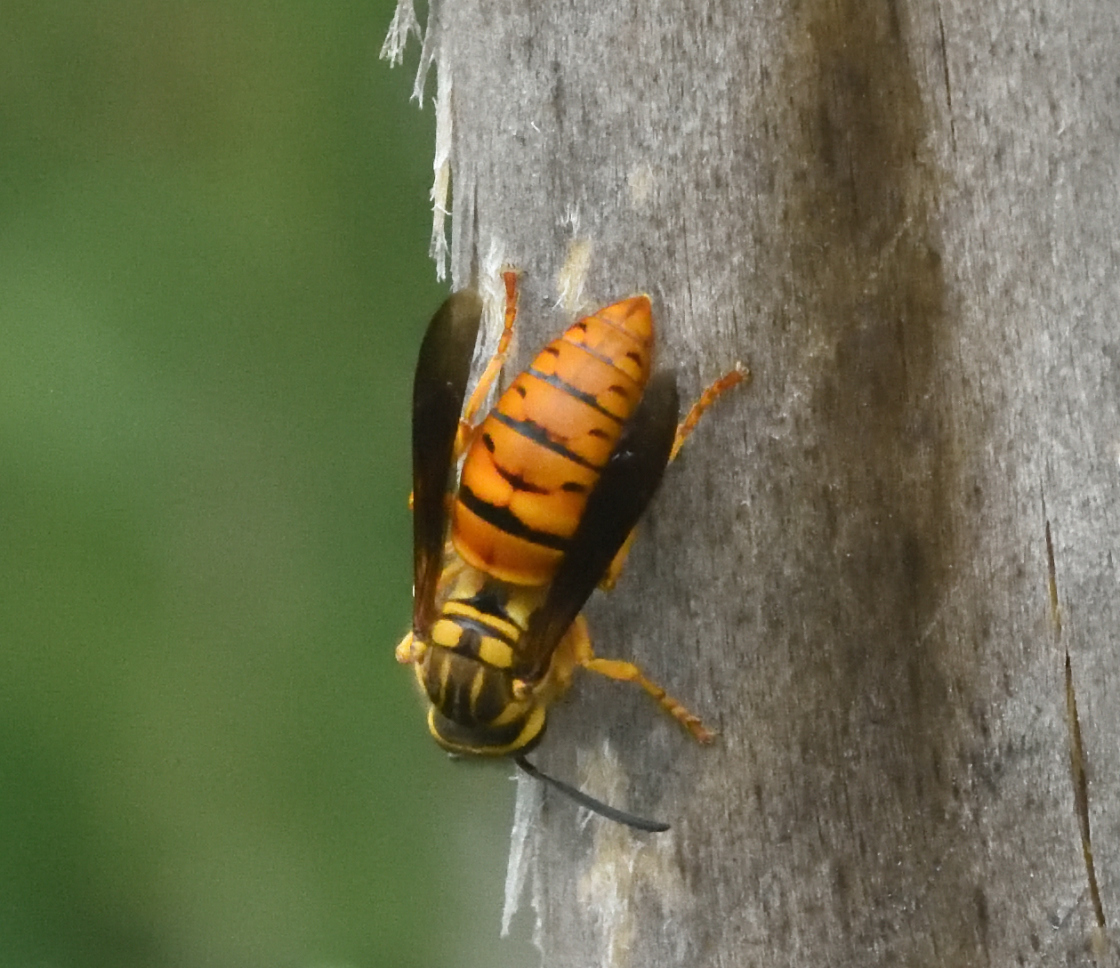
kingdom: Animalia
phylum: Arthropoda
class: Insecta
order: Hymenoptera
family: Vespidae
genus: Vespula
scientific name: Vespula squamosa
